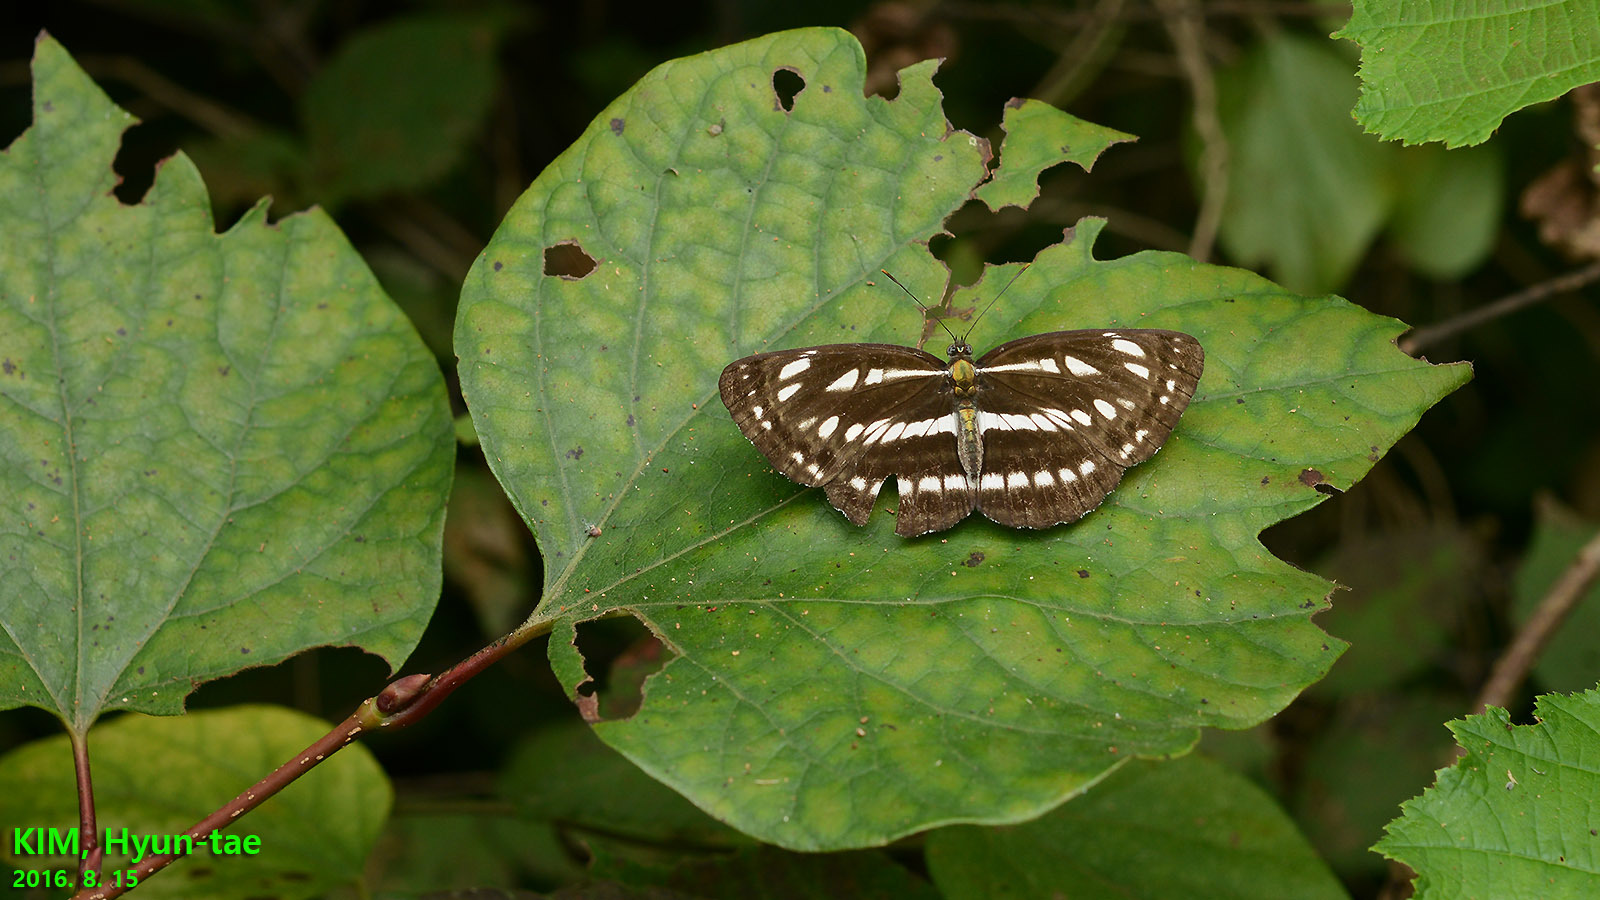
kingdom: Animalia
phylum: Arthropoda
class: Insecta
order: Lepidoptera
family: Nymphalidae
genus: Neptis
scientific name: Neptis sappho
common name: Common glider
